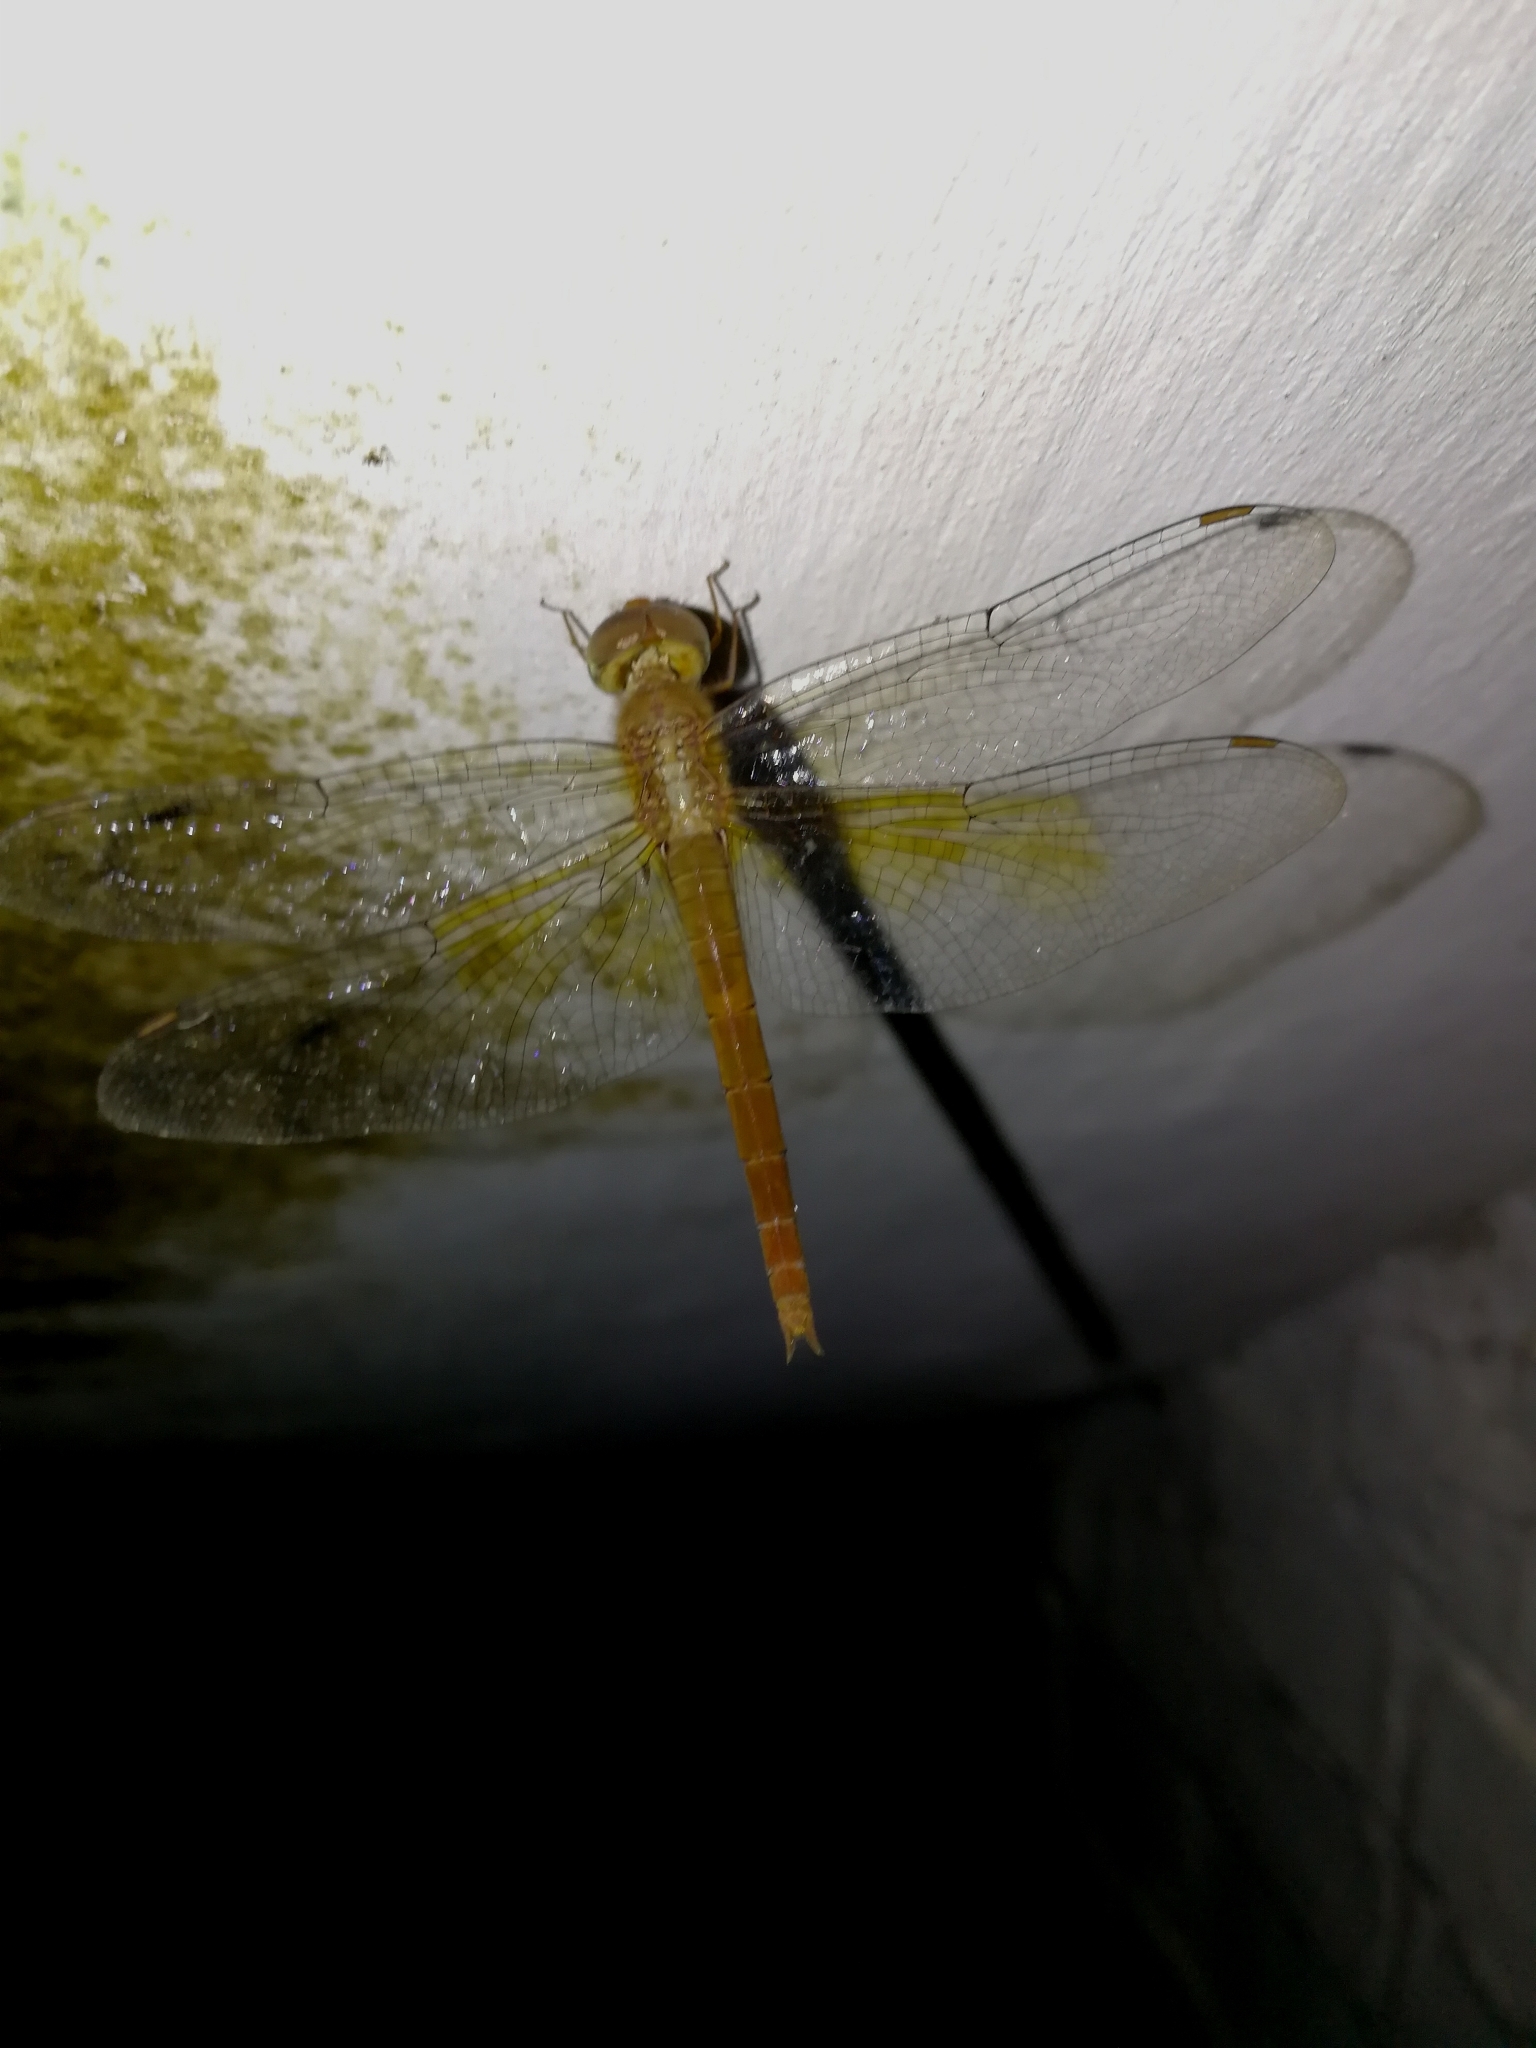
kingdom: Animalia
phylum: Arthropoda
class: Insecta
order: Odonata
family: Libellulidae
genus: Tholymis
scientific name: Tholymis tillarga
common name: Coral-tailed cloud wing
